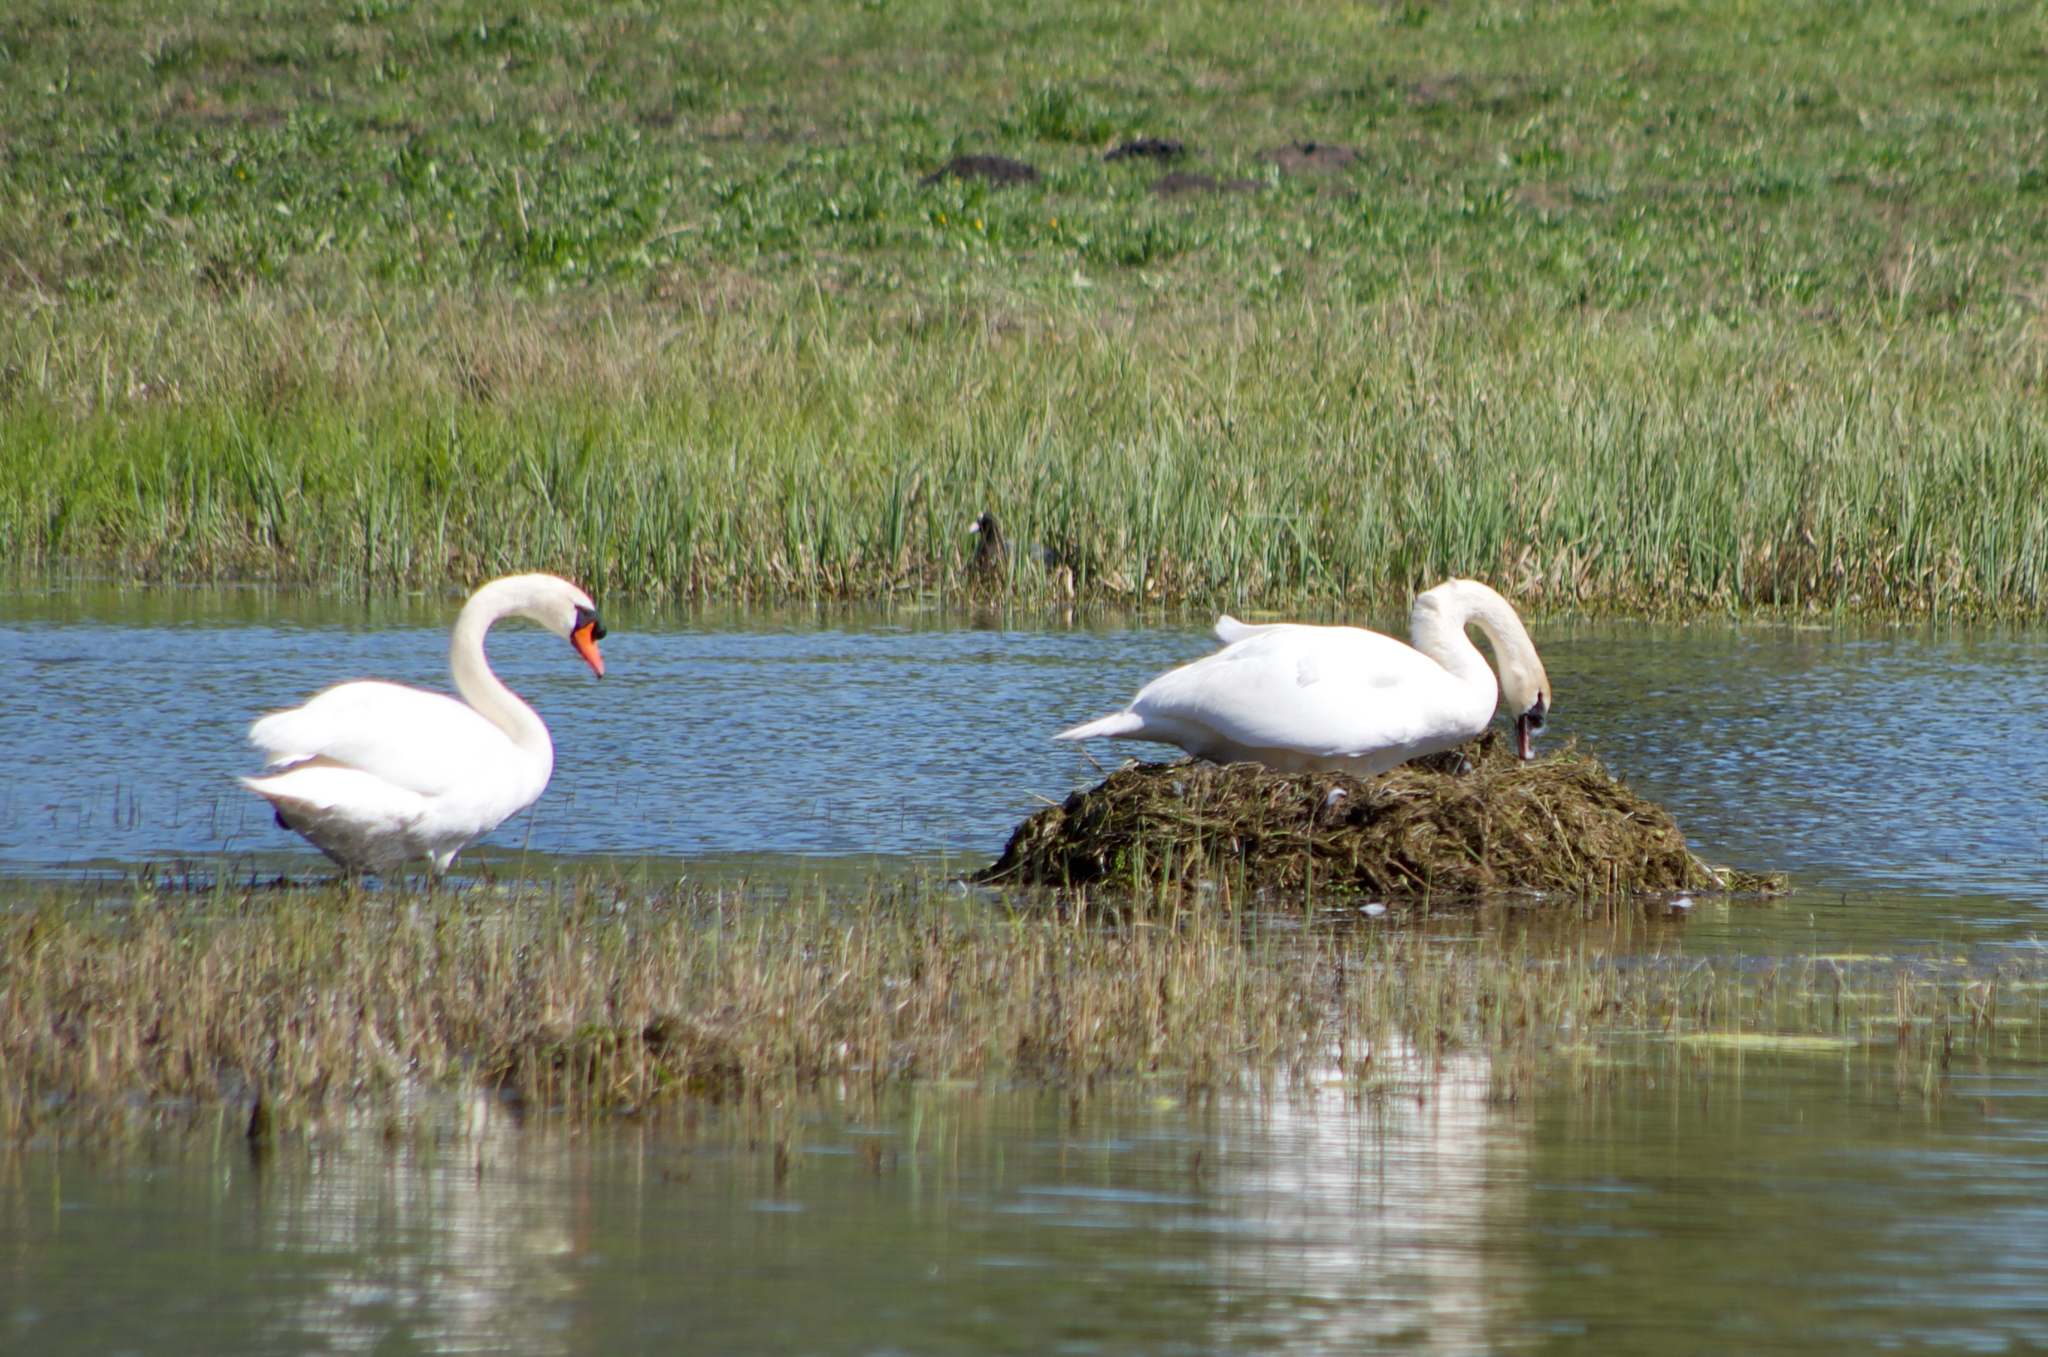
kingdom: Animalia
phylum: Chordata
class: Aves
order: Anseriformes
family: Anatidae
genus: Cygnus
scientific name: Cygnus olor
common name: Mute swan
